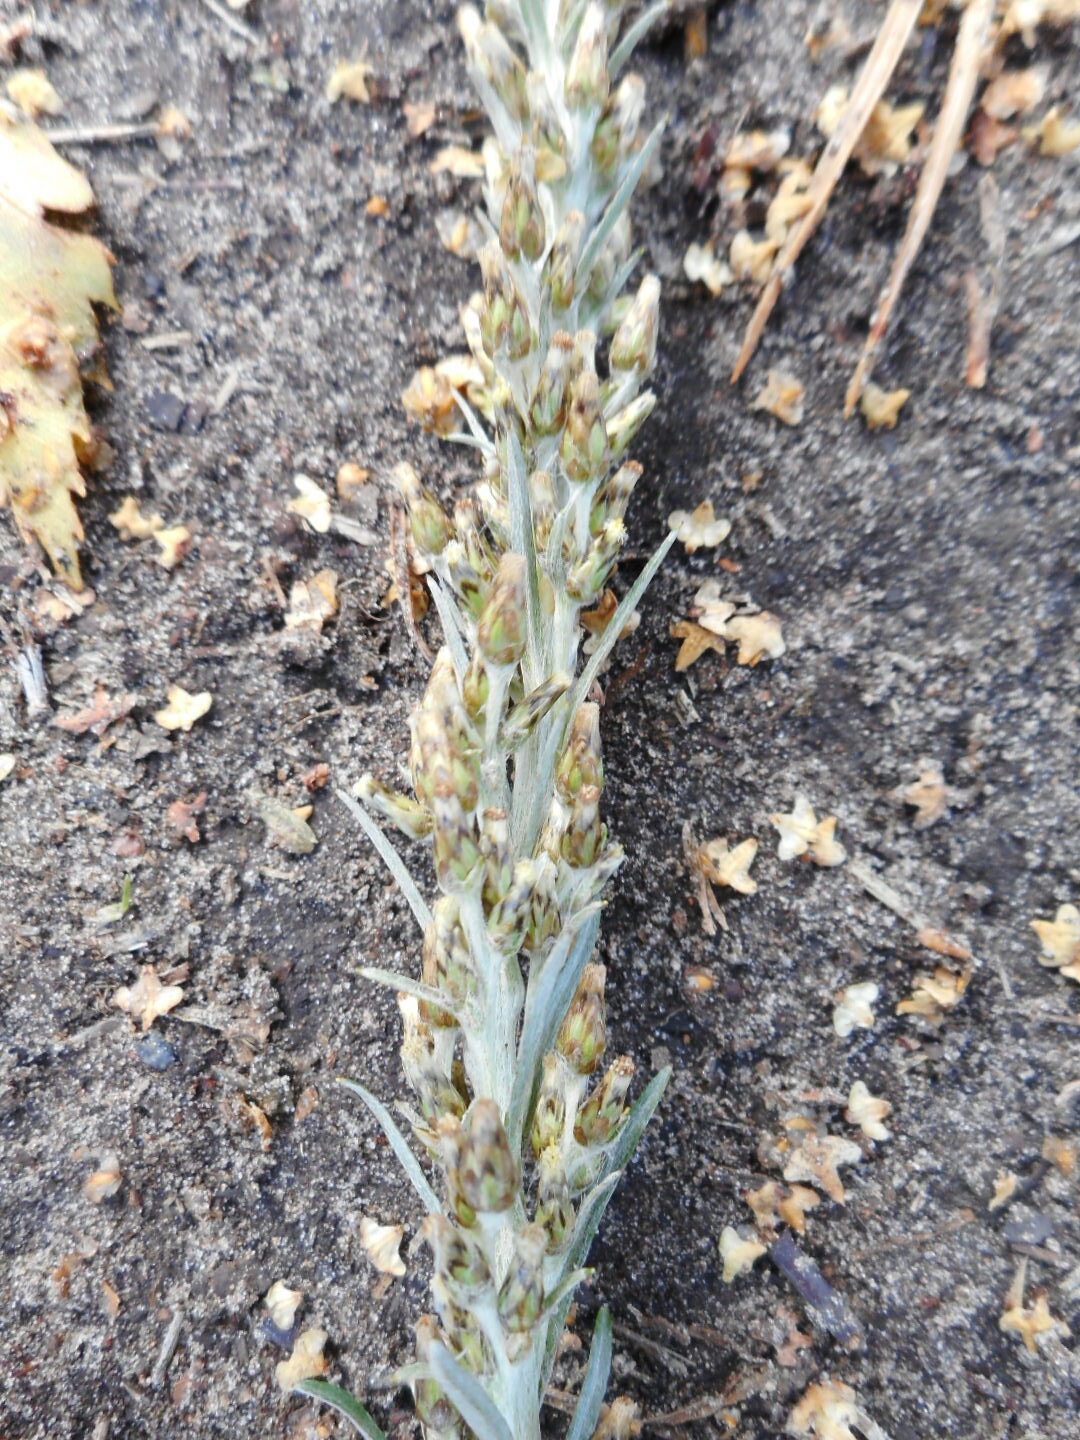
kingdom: Plantae
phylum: Tracheophyta
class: Magnoliopsida
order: Asterales
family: Asteraceae
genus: Omalotheca
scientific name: Omalotheca sylvatica
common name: Heath cudweed
